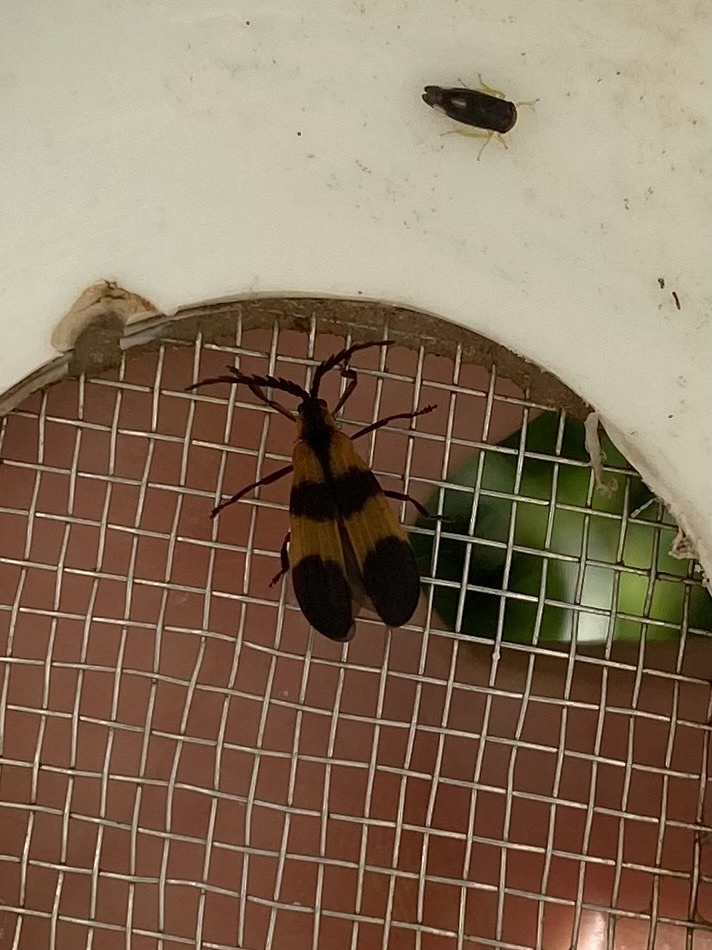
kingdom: Animalia
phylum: Arthropoda
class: Insecta
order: Coleoptera
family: Lycidae
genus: Calopteron
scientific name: Calopteron discrepans
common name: Banded net-winged beetle
